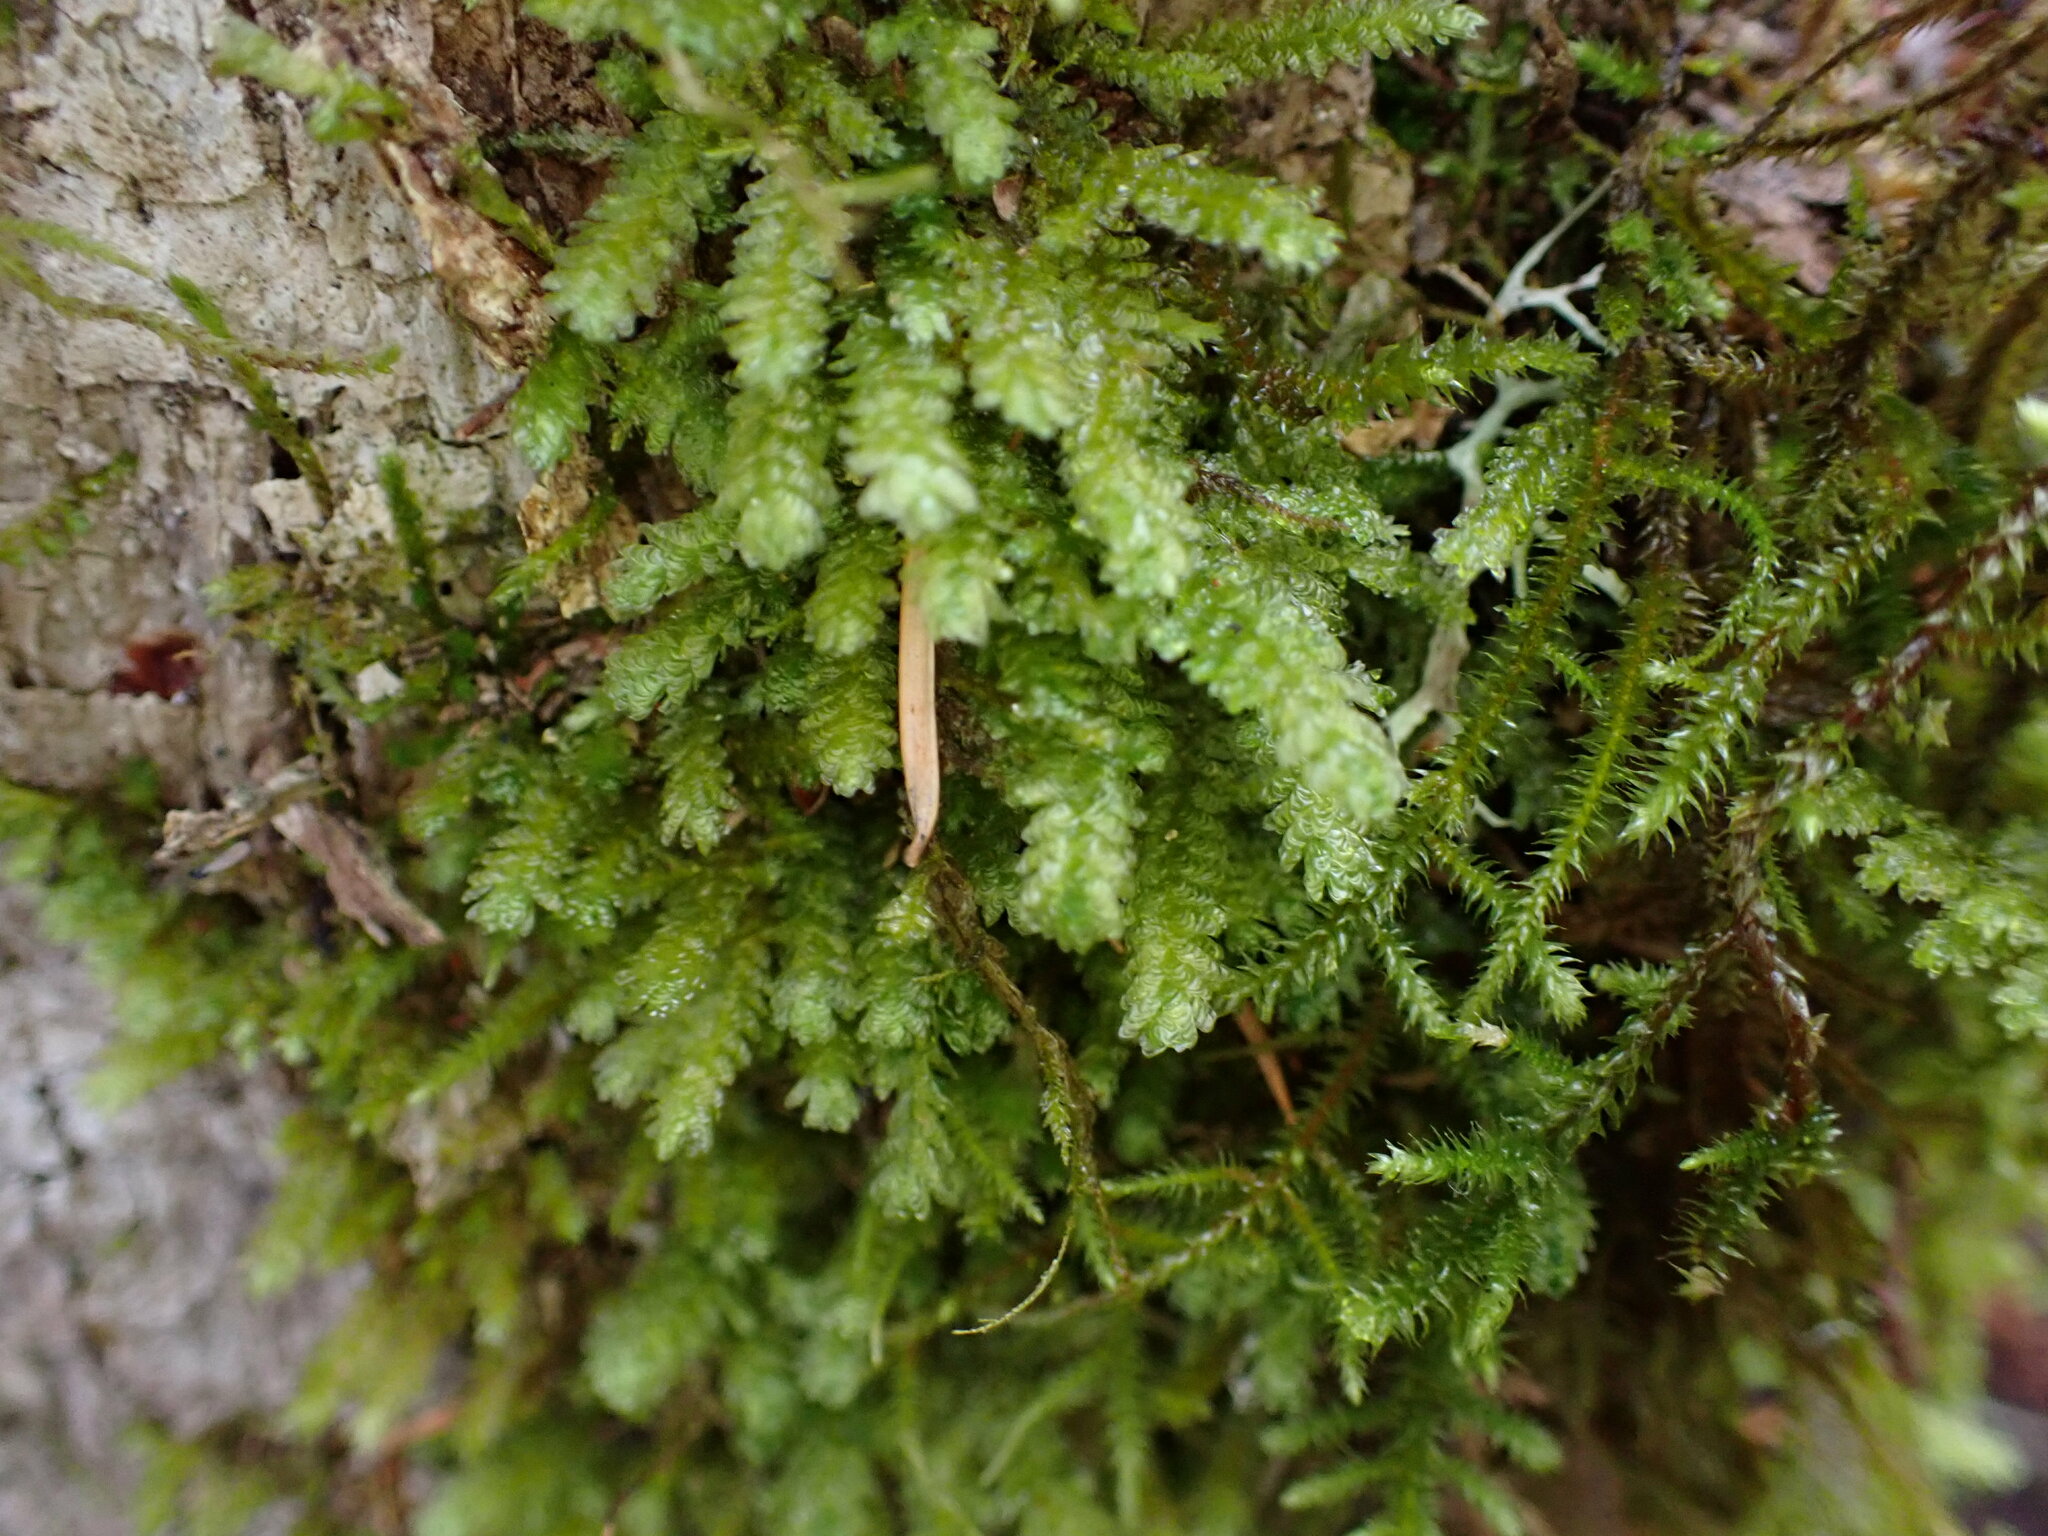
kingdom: Plantae
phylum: Bryophyta
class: Bryopsida
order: Hypnales
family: Neckeraceae
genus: Metaneckera
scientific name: Metaneckera menziesii
